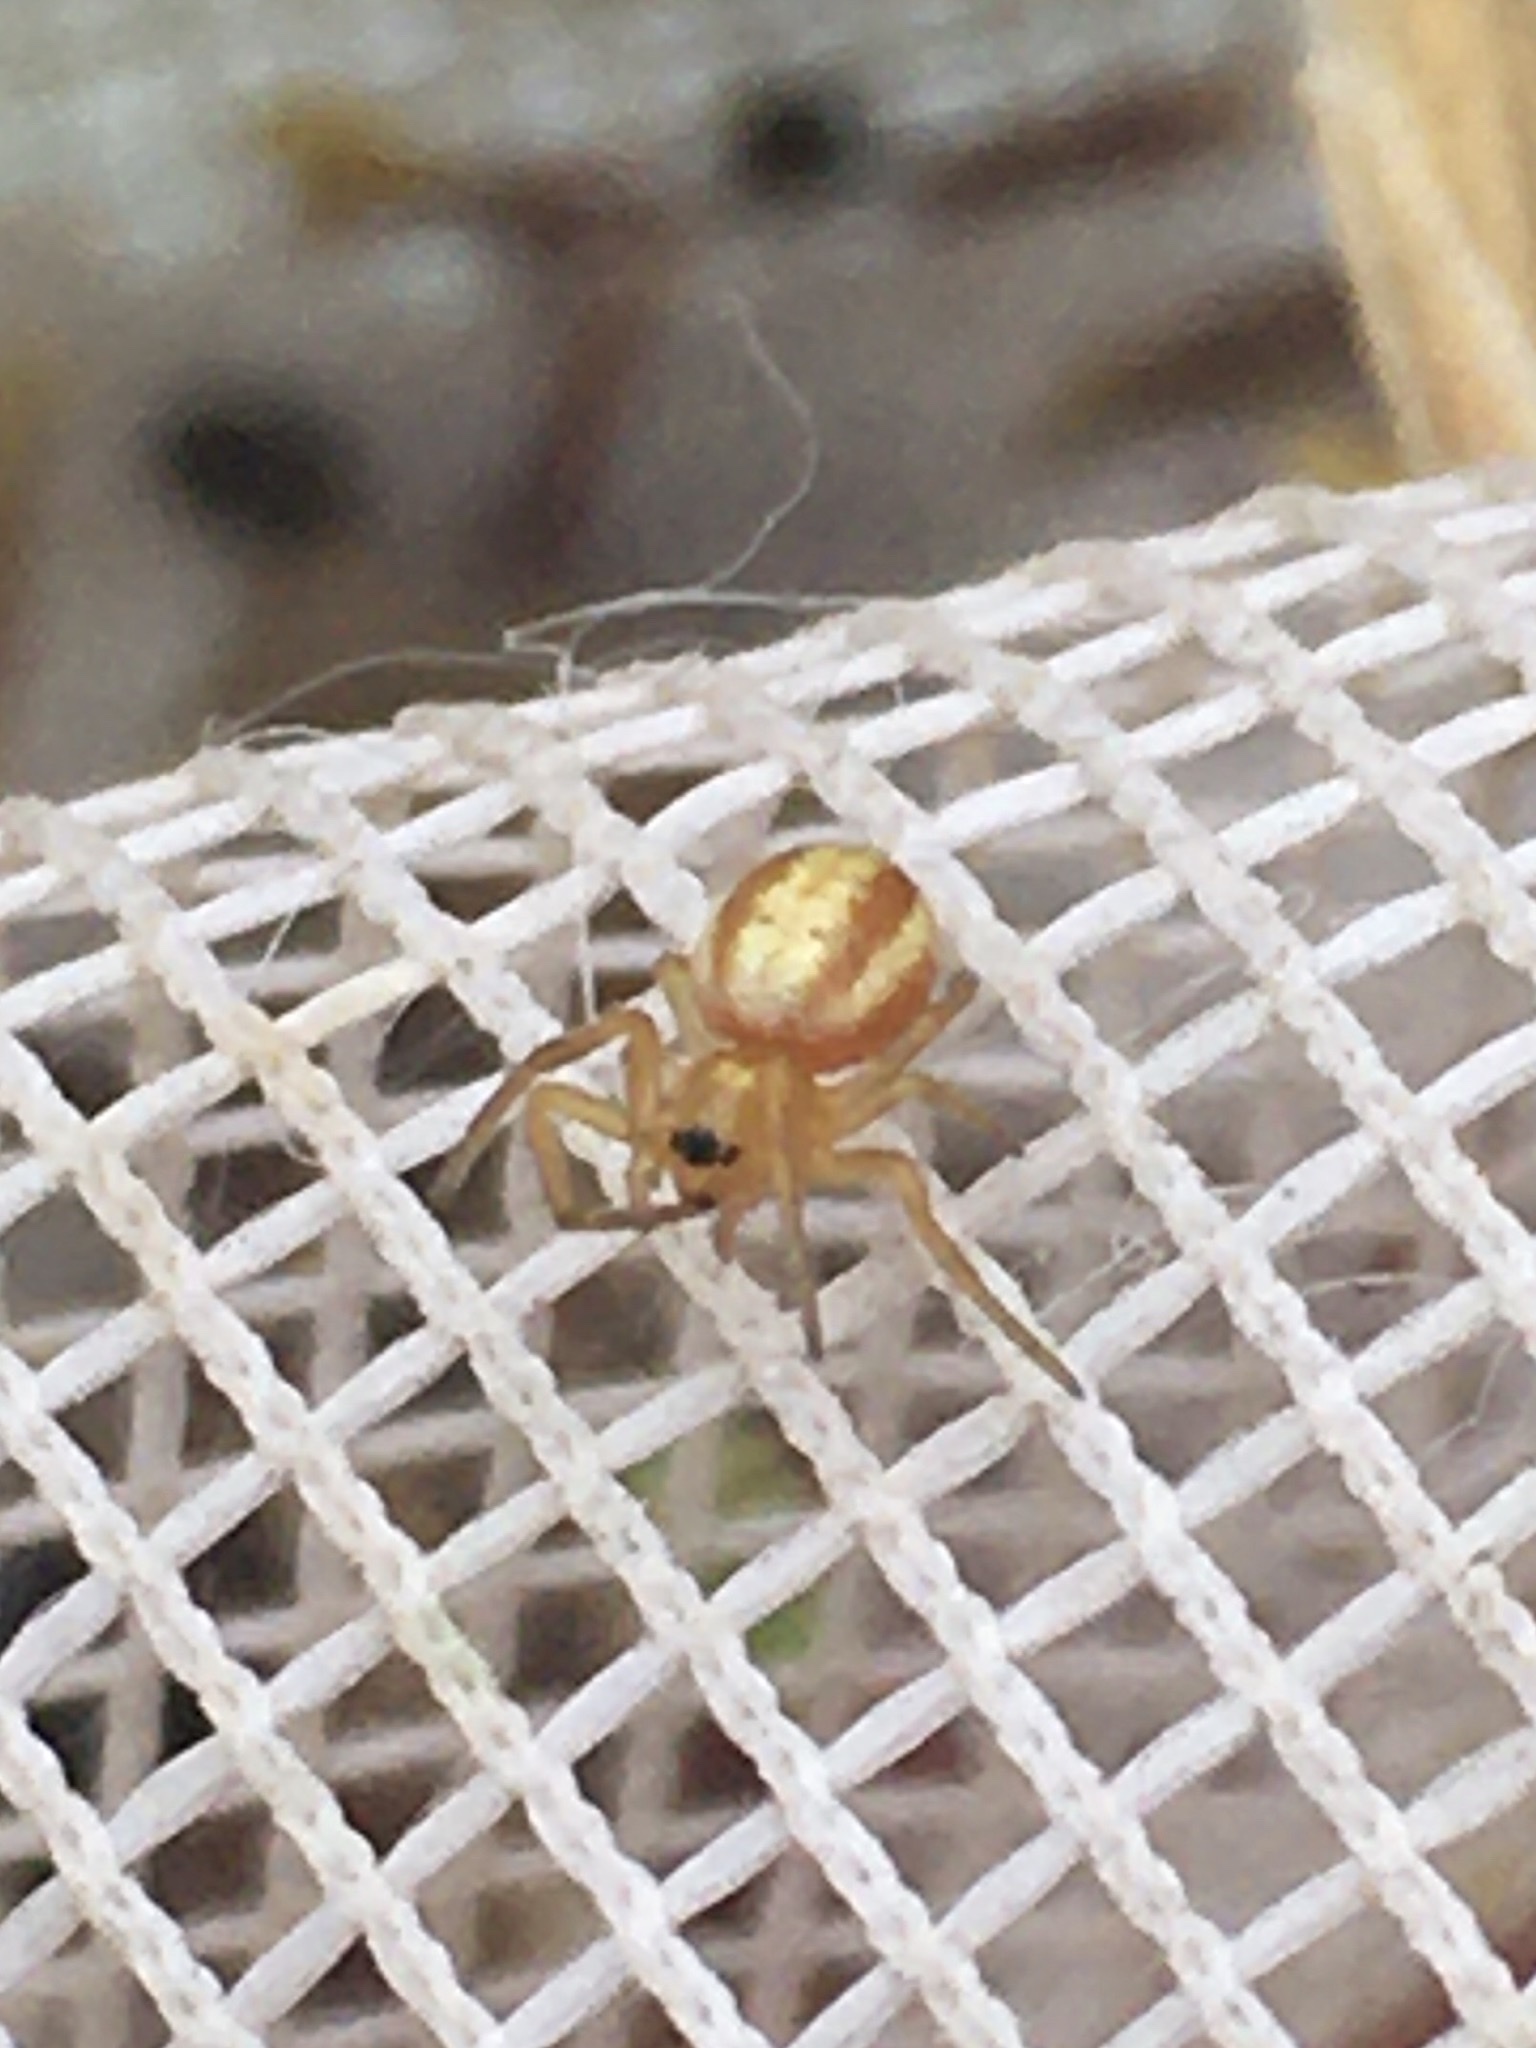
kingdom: Animalia
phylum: Arthropoda
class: Arachnida
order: Araneae
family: Araneidae
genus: Araneus
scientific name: Araneus pratensis
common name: Openfield orbweaver
